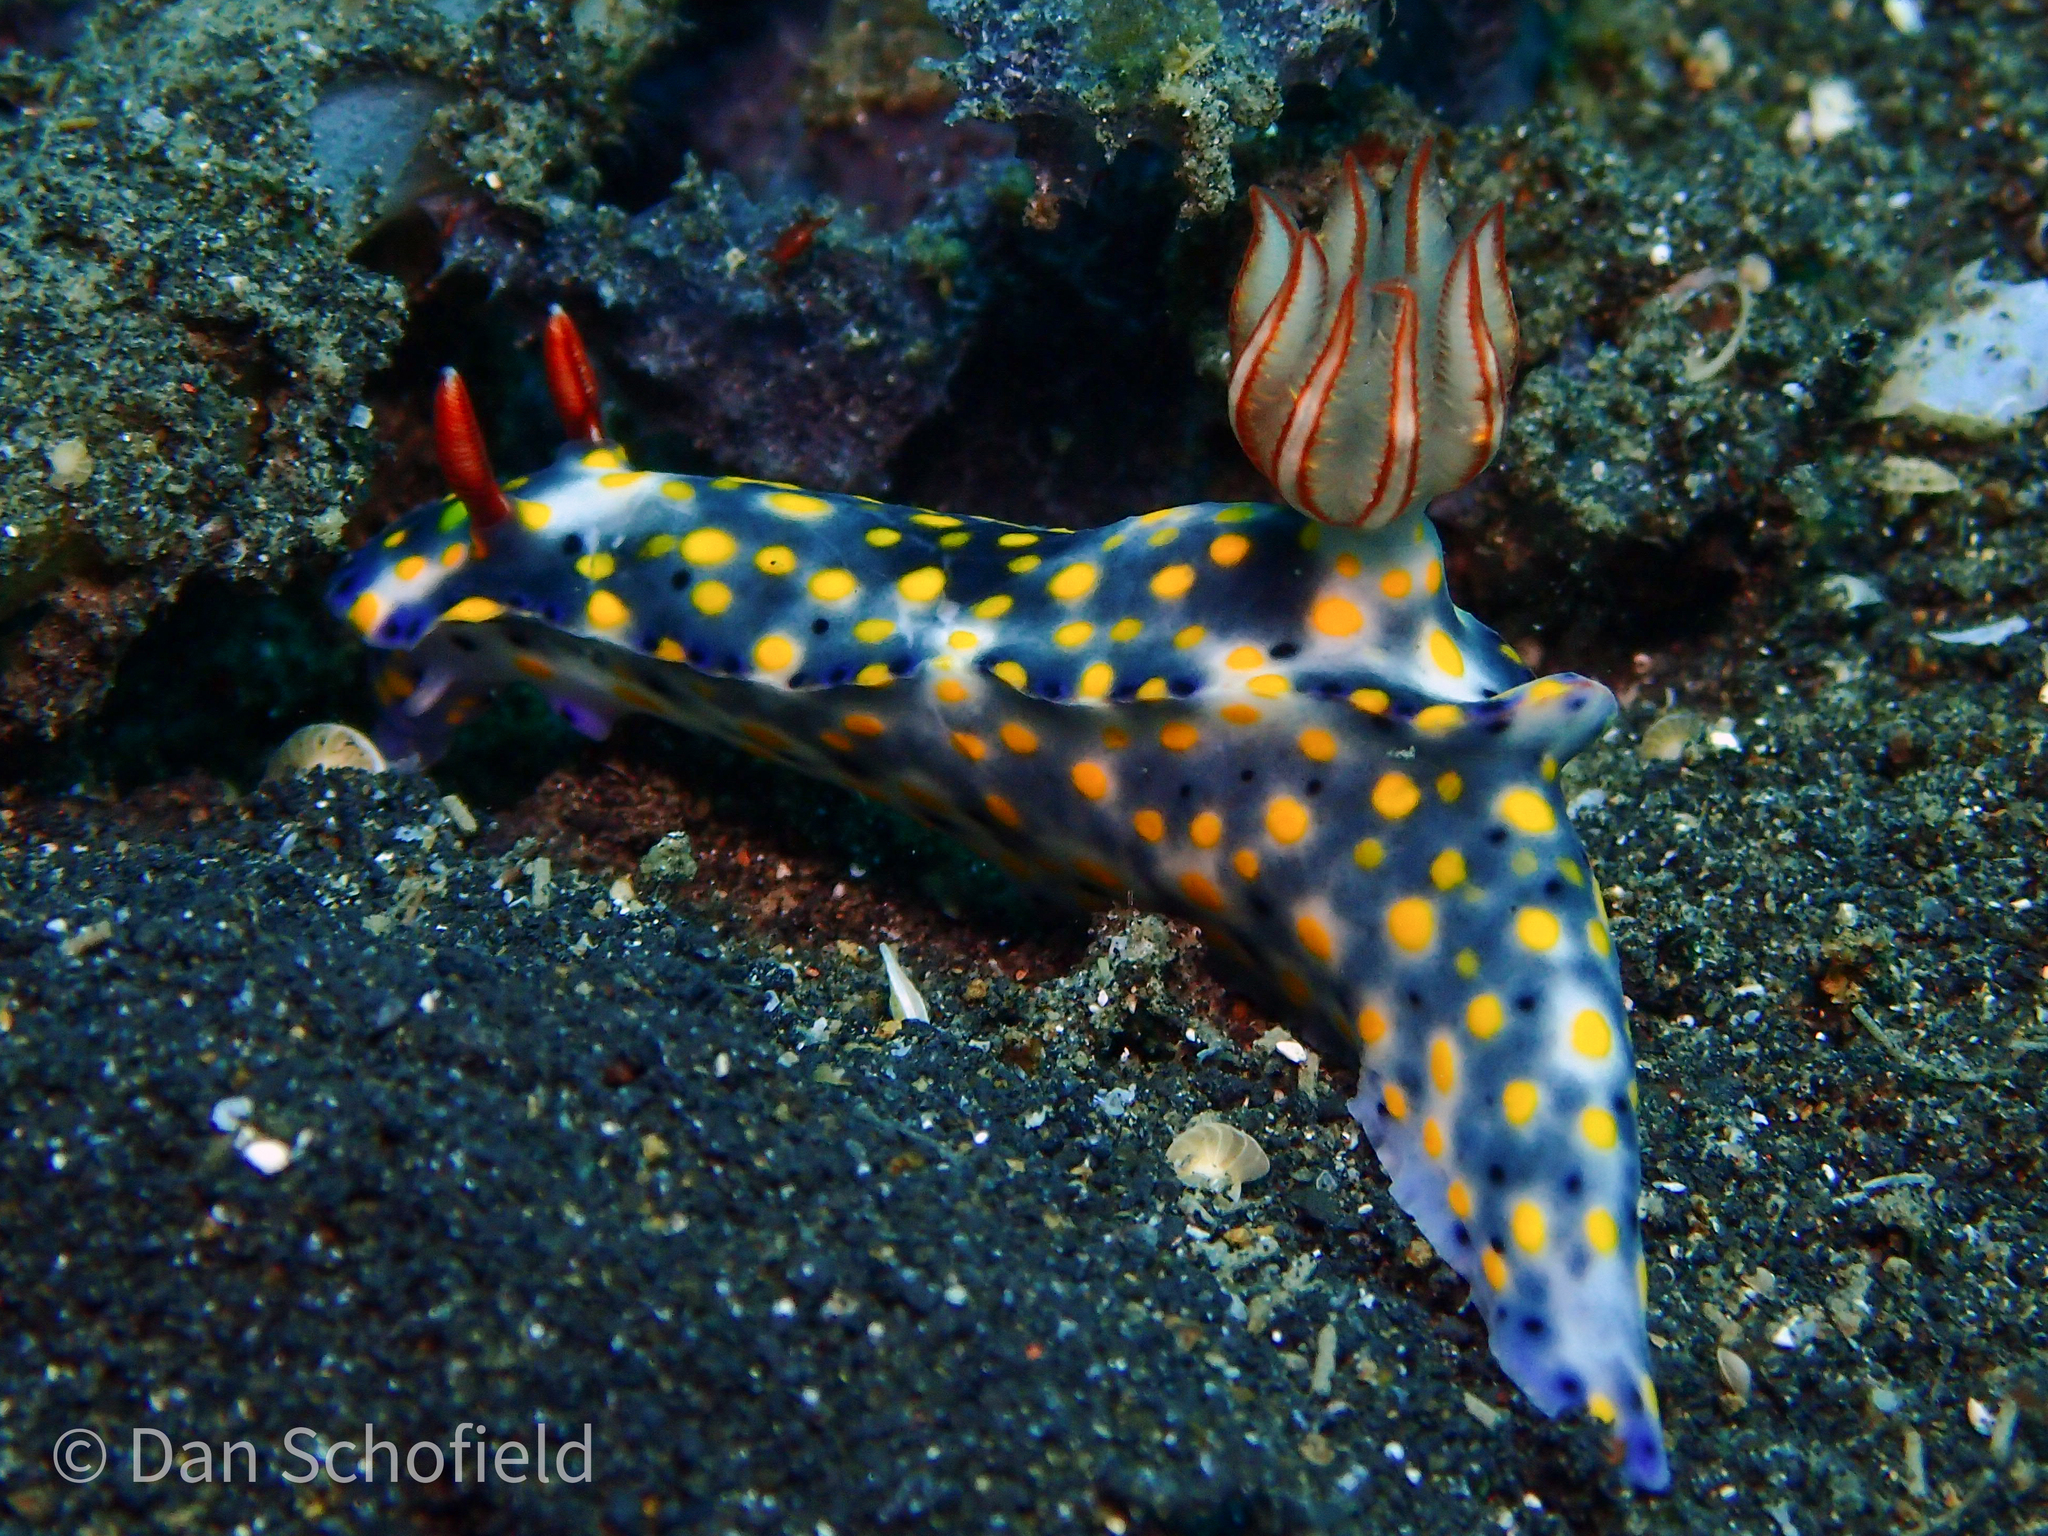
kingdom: Animalia
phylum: Mollusca
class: Gastropoda
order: Nudibranchia
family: Chromodorididae
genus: Hypselodoris
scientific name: Hypselodoris roo
